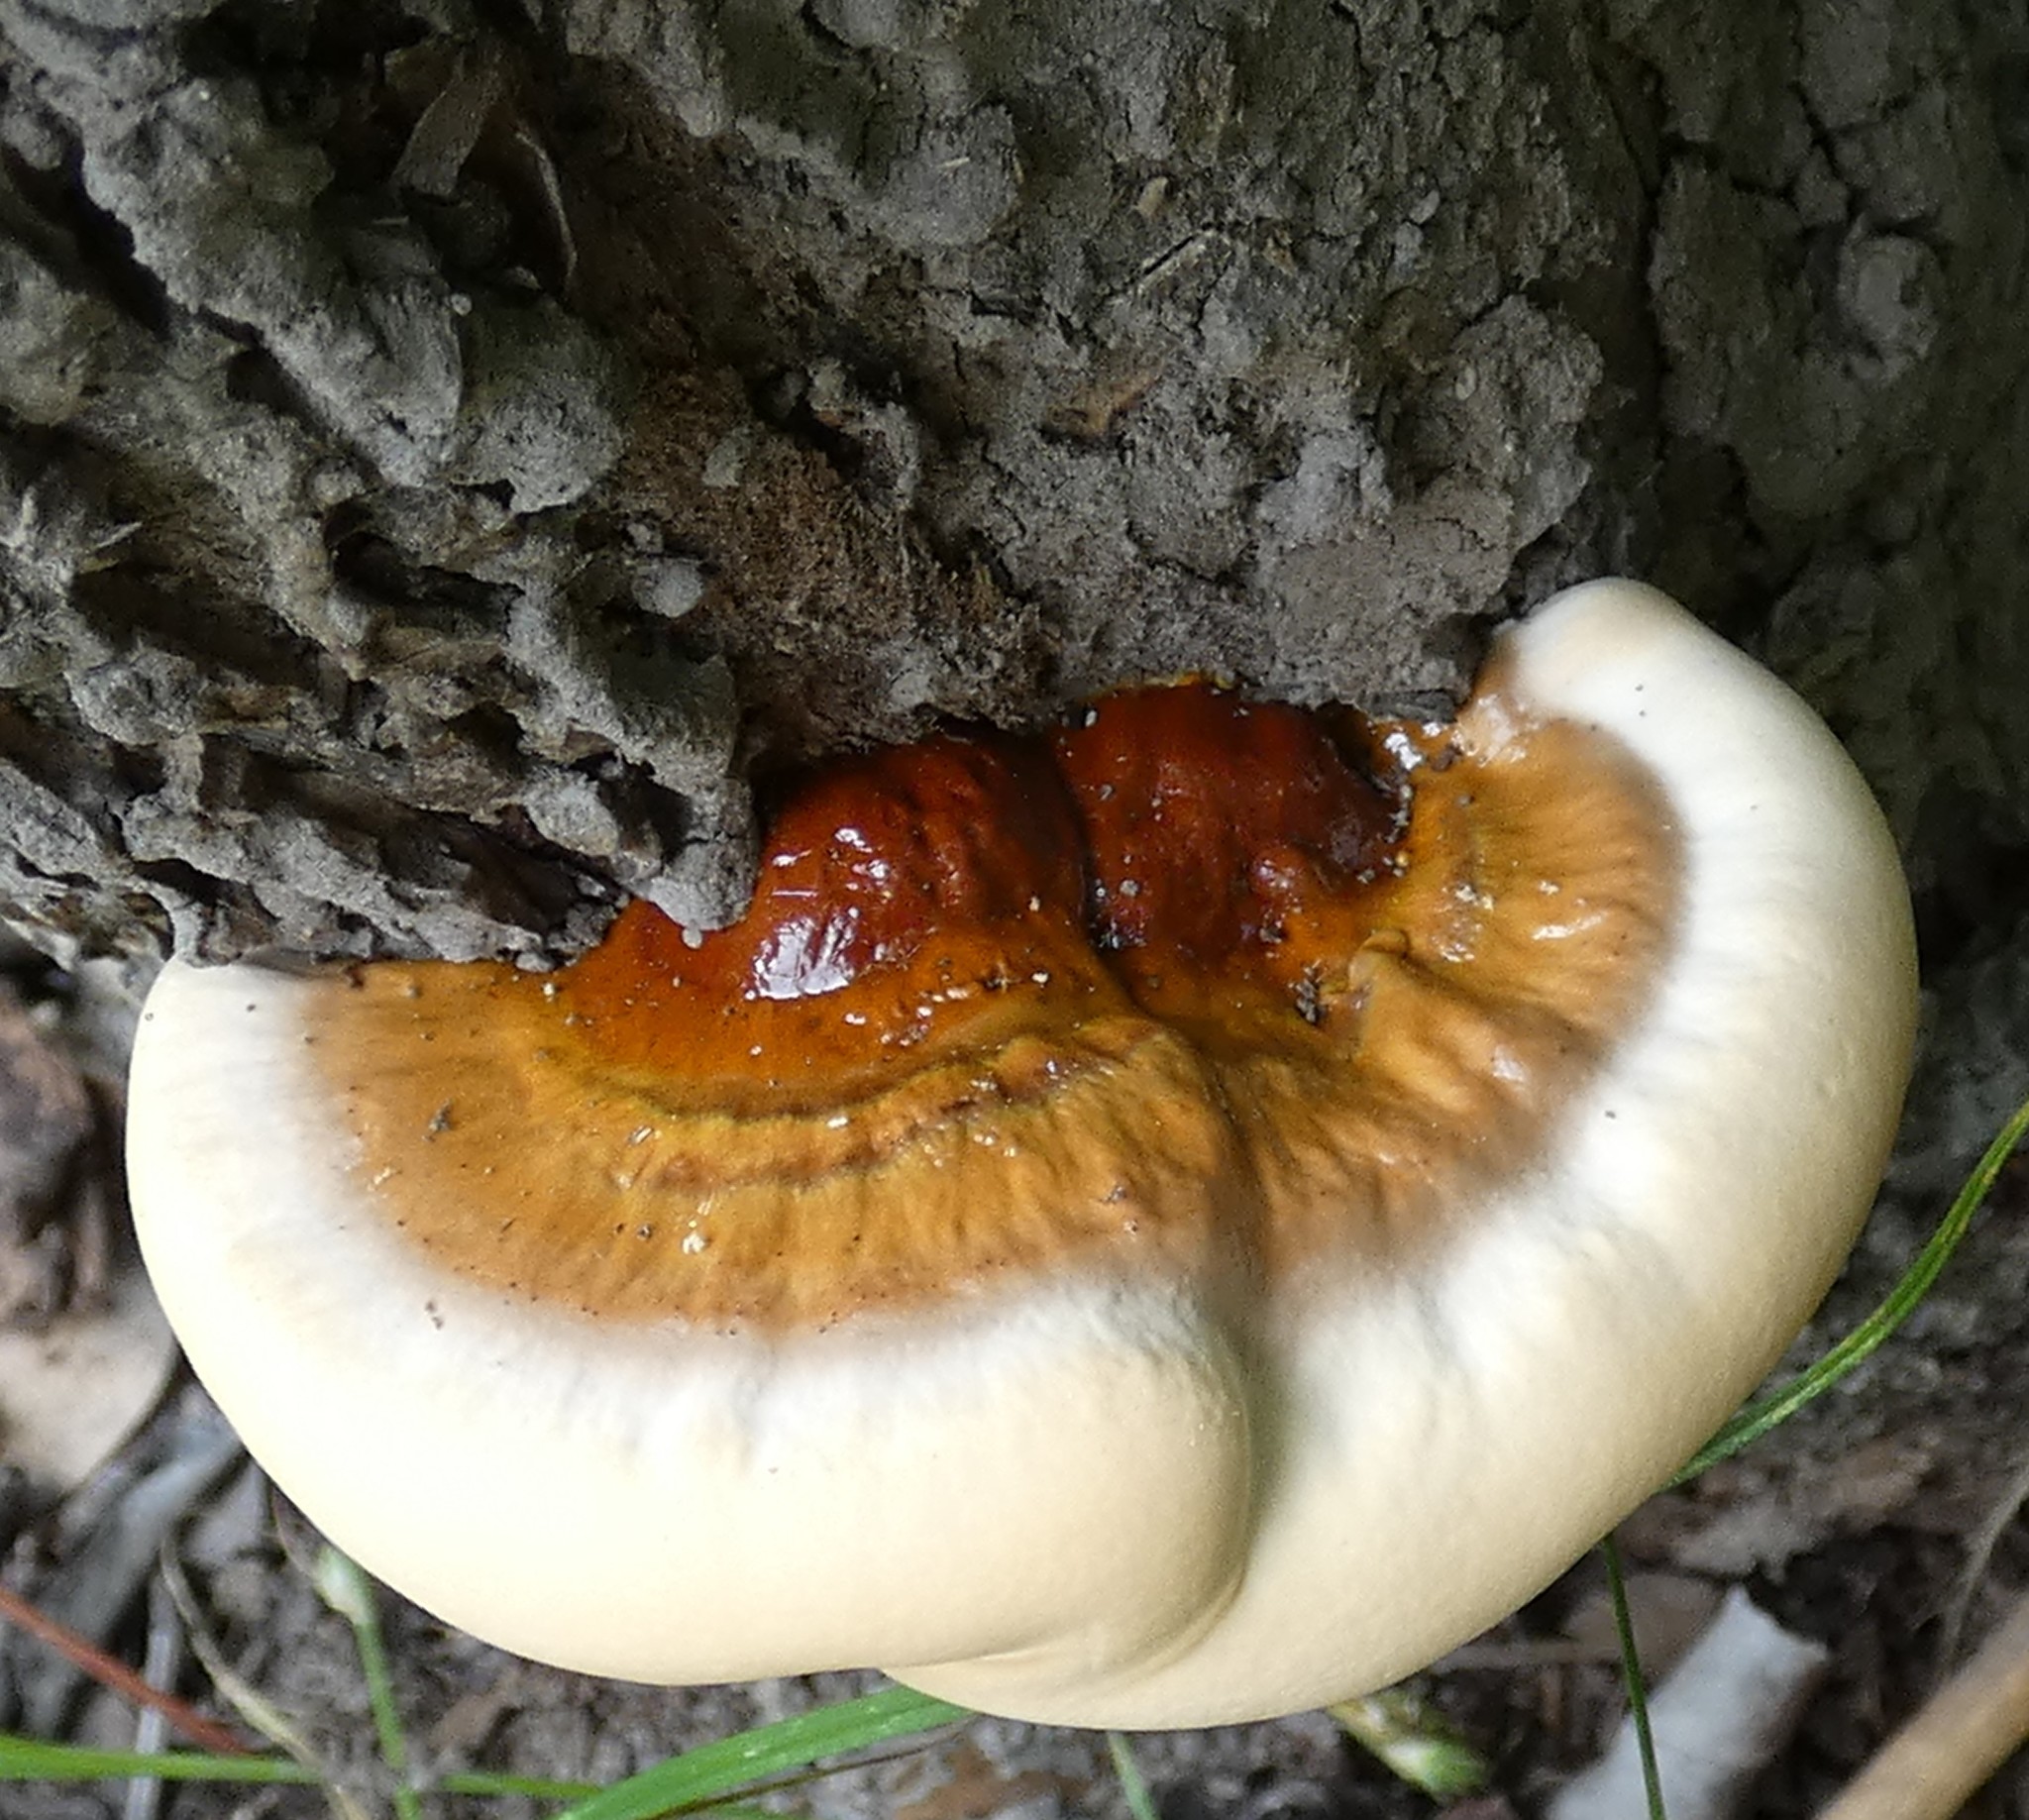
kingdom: Fungi
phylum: Basidiomycota
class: Agaricomycetes
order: Polyporales
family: Polyporaceae
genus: Ganoderma
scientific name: Ganoderma tsugae
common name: Hemlock varnish shelf
